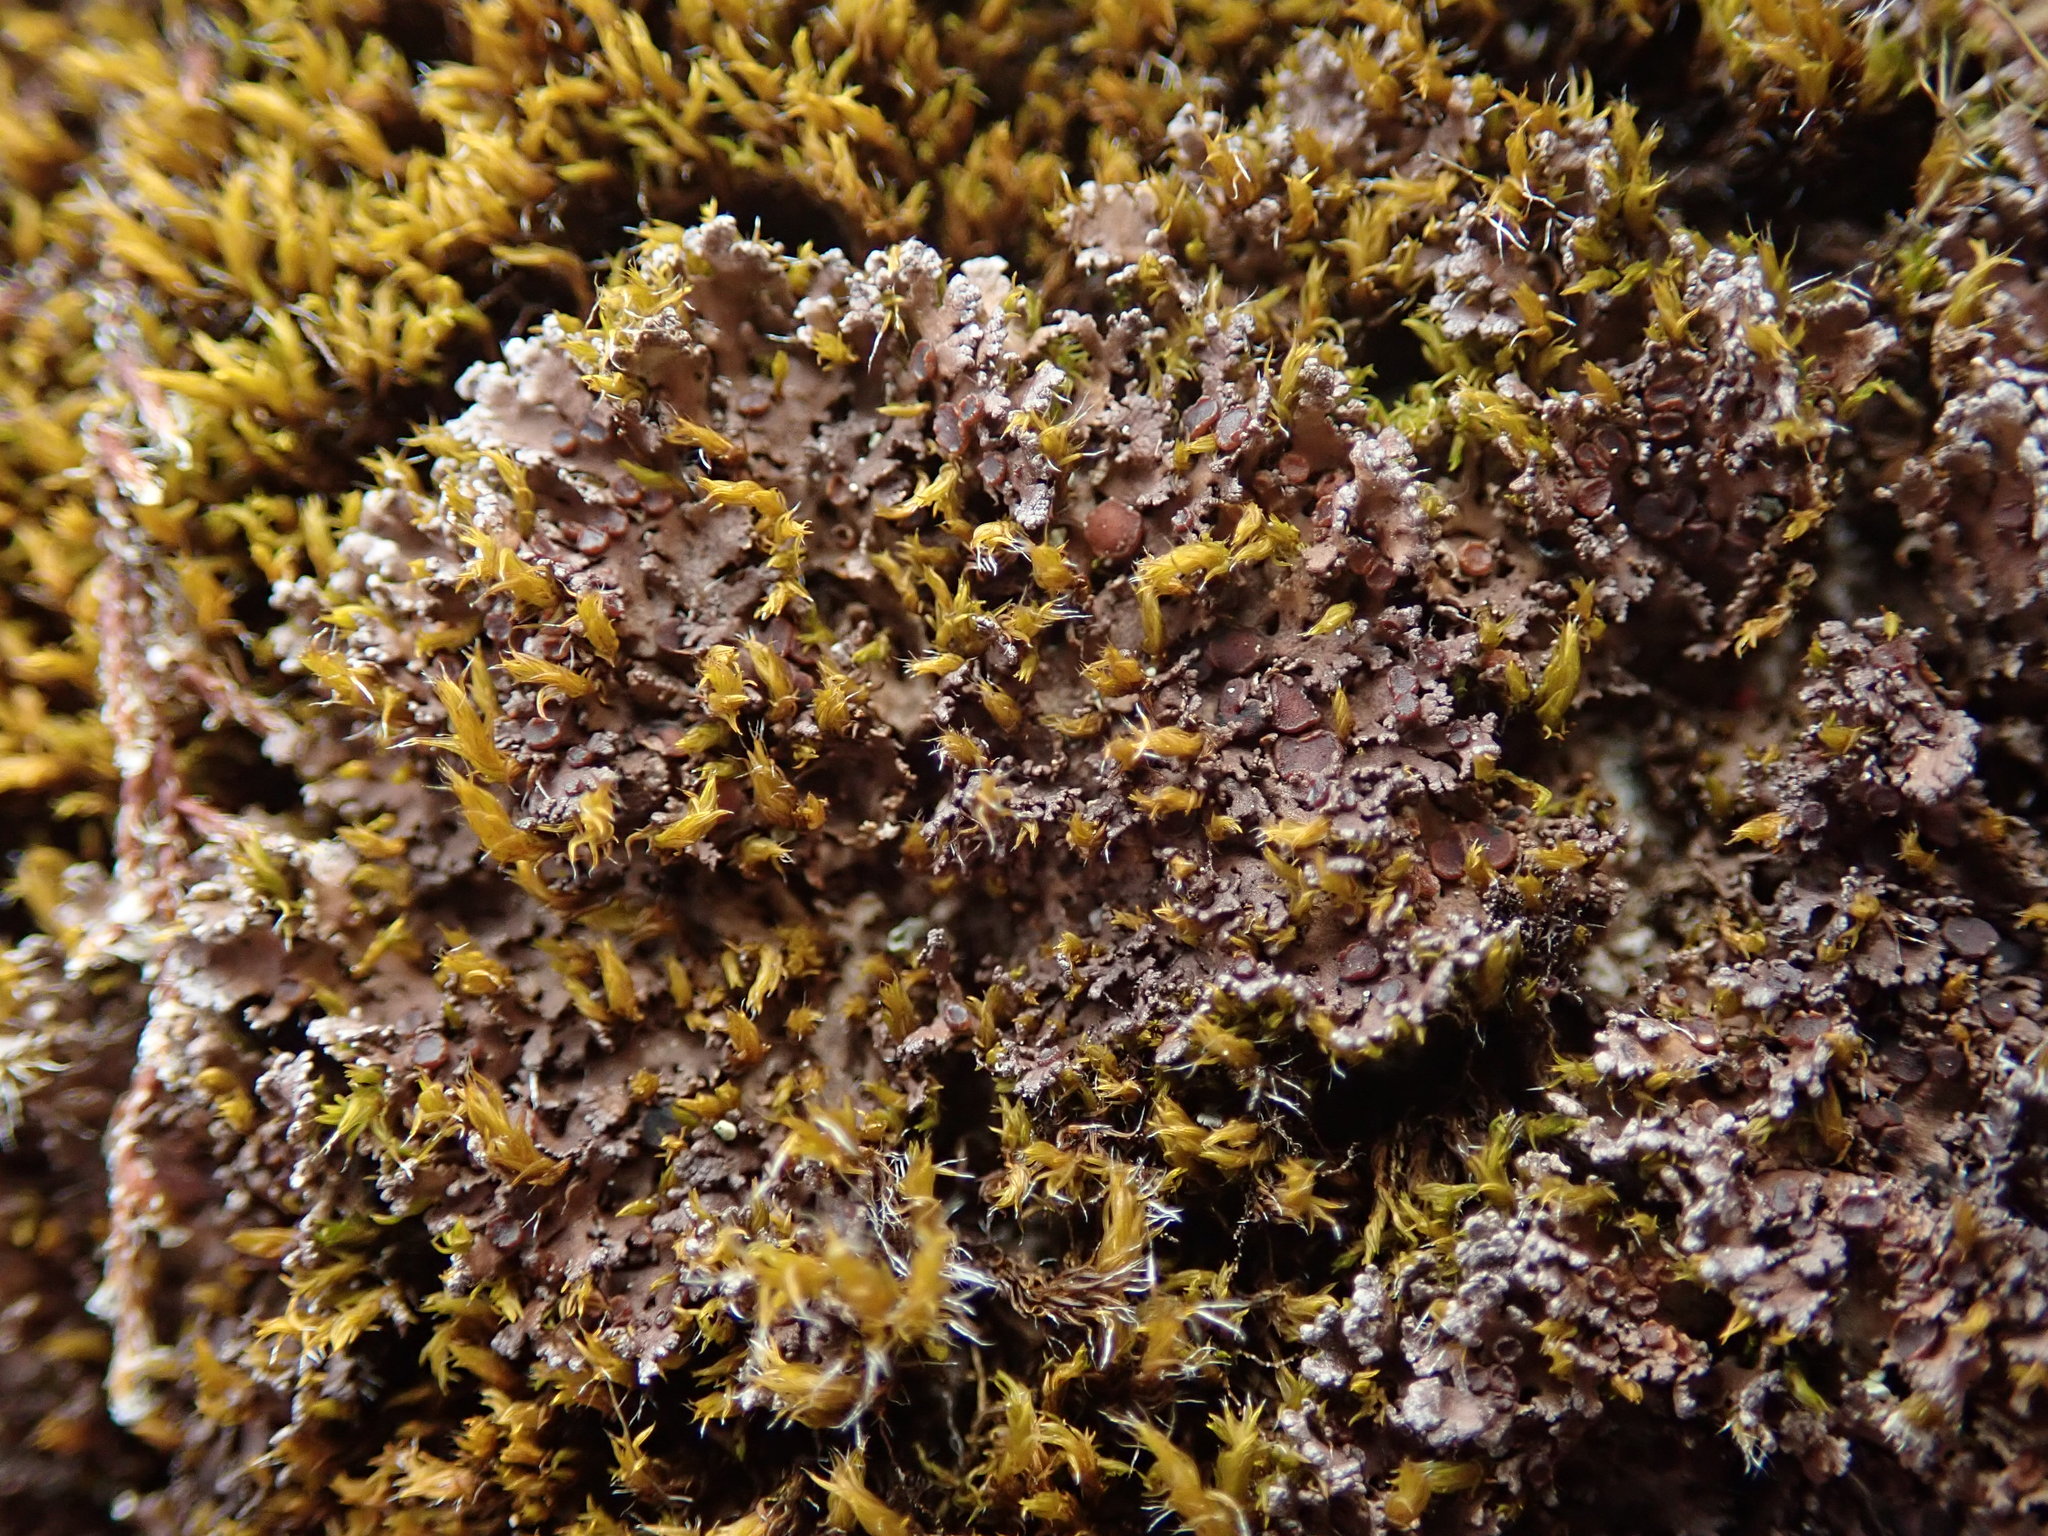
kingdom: Fungi
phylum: Ascomycota
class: Lecanoromycetes
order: Peltigerales
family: Massalongiaceae
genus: Massalongia
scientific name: Massalongia carnosa
